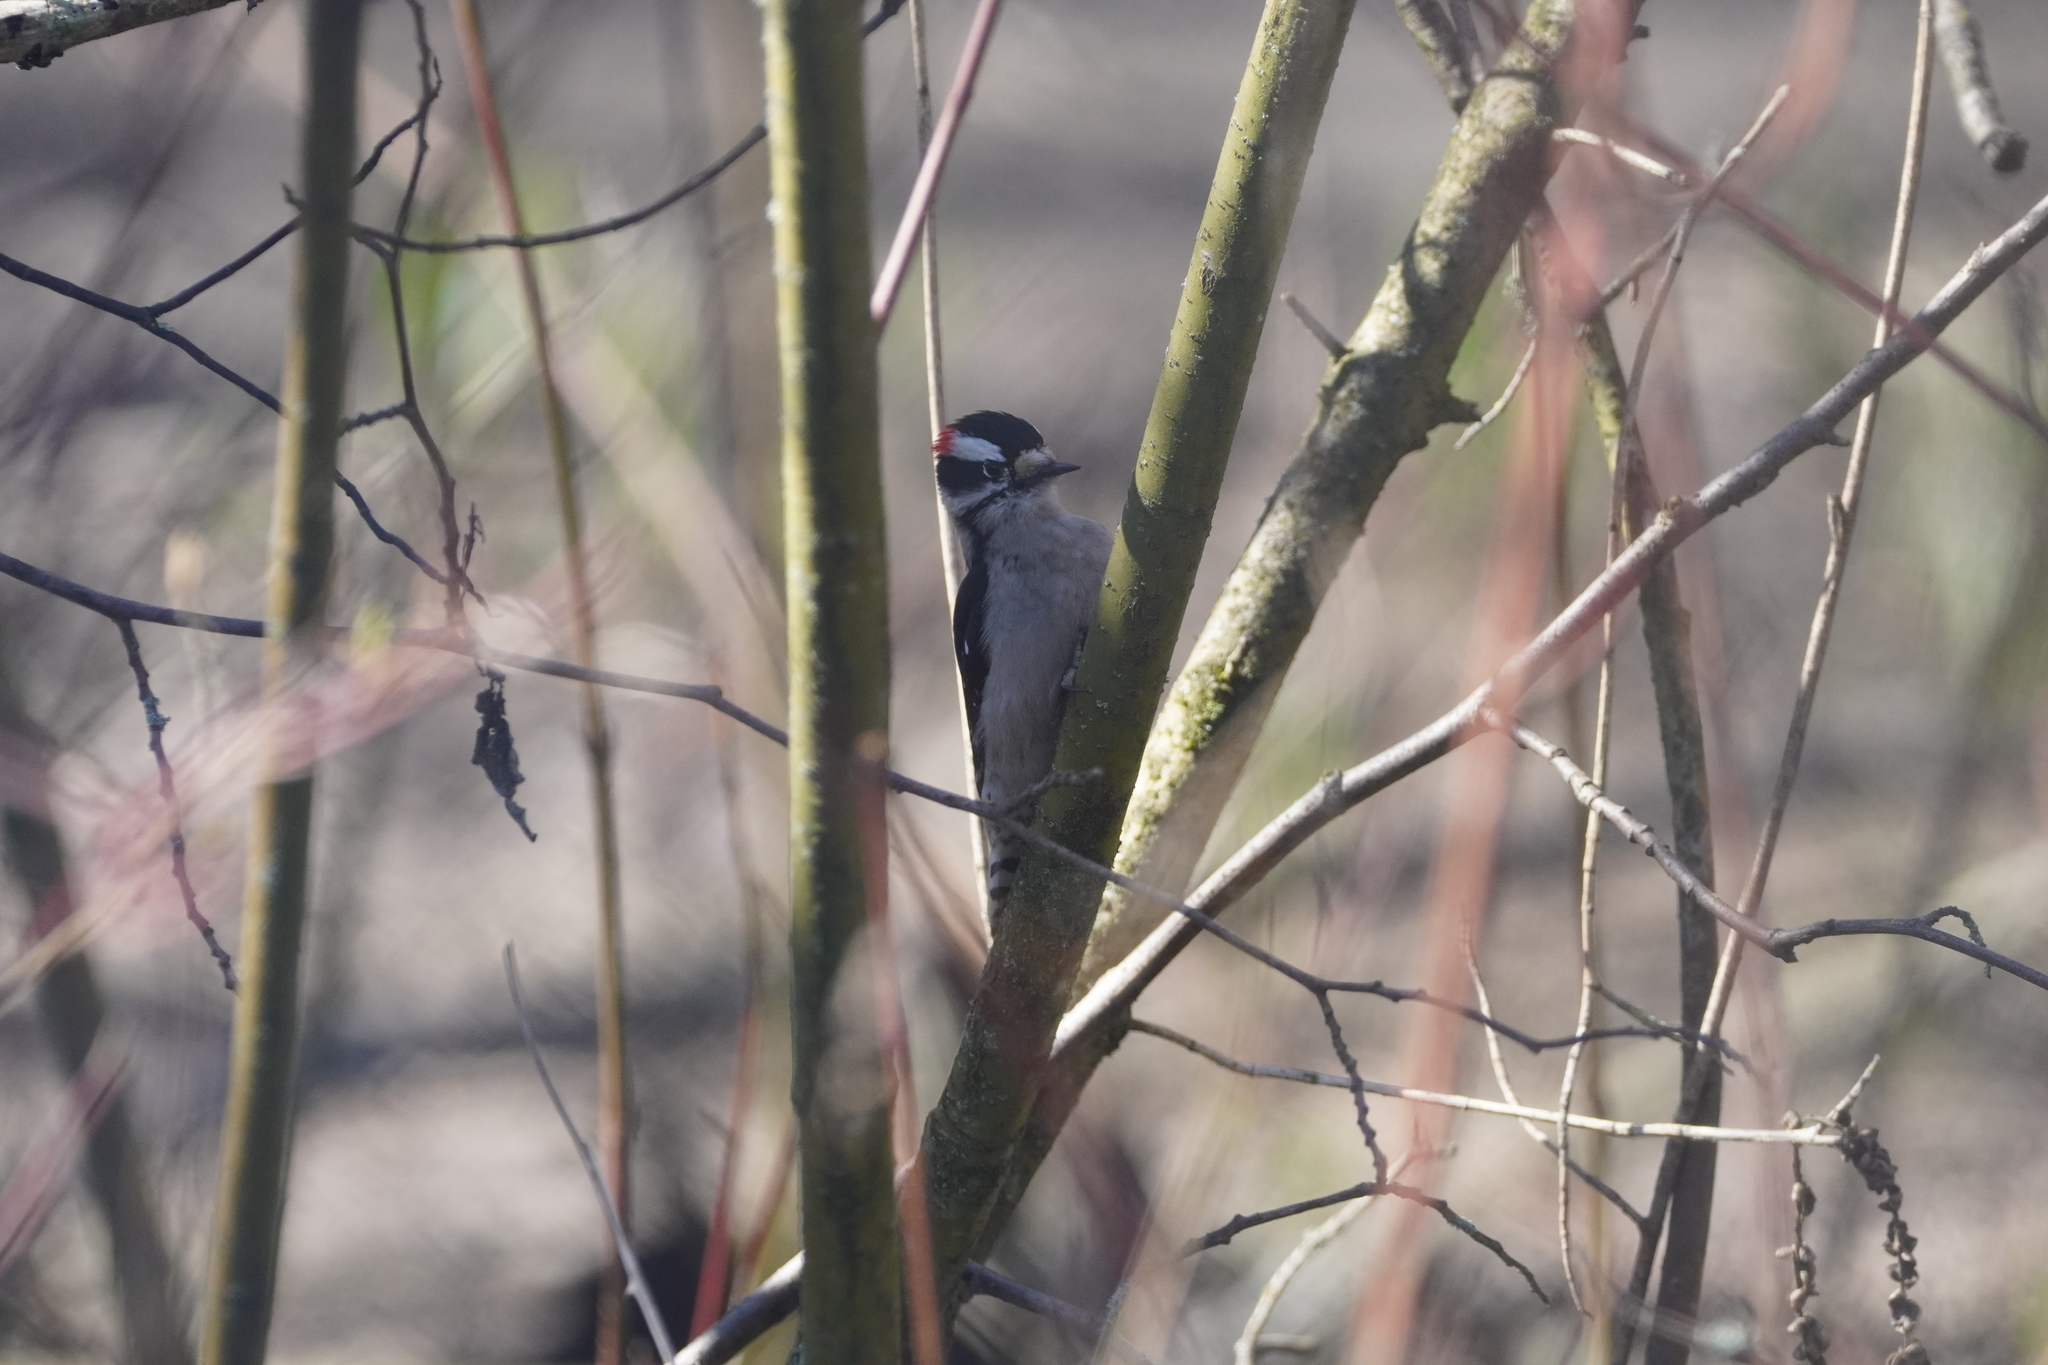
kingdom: Animalia
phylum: Chordata
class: Aves
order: Piciformes
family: Picidae
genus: Dryobates
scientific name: Dryobates pubescens
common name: Downy woodpecker
